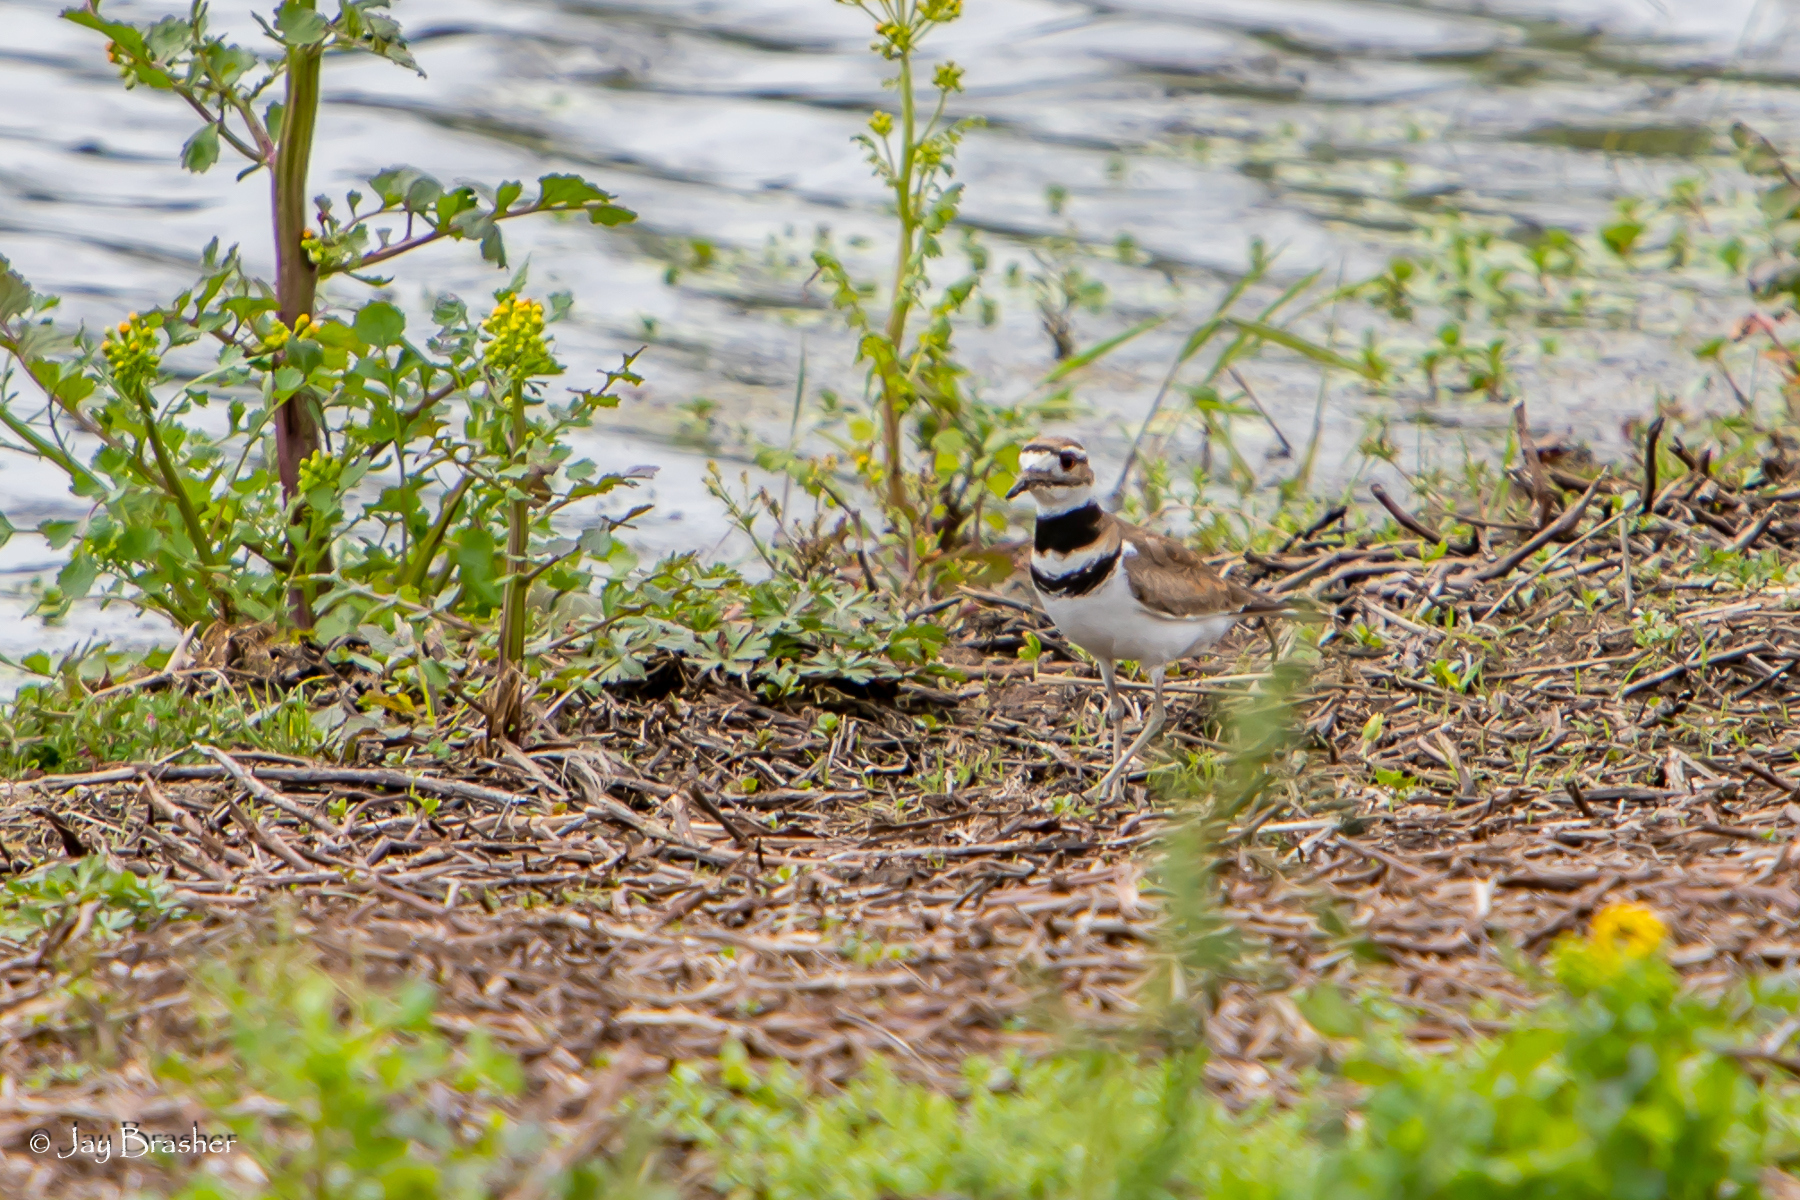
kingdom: Animalia
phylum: Chordata
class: Aves
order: Charadriiformes
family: Charadriidae
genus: Charadrius
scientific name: Charadrius vociferus
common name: Killdeer
